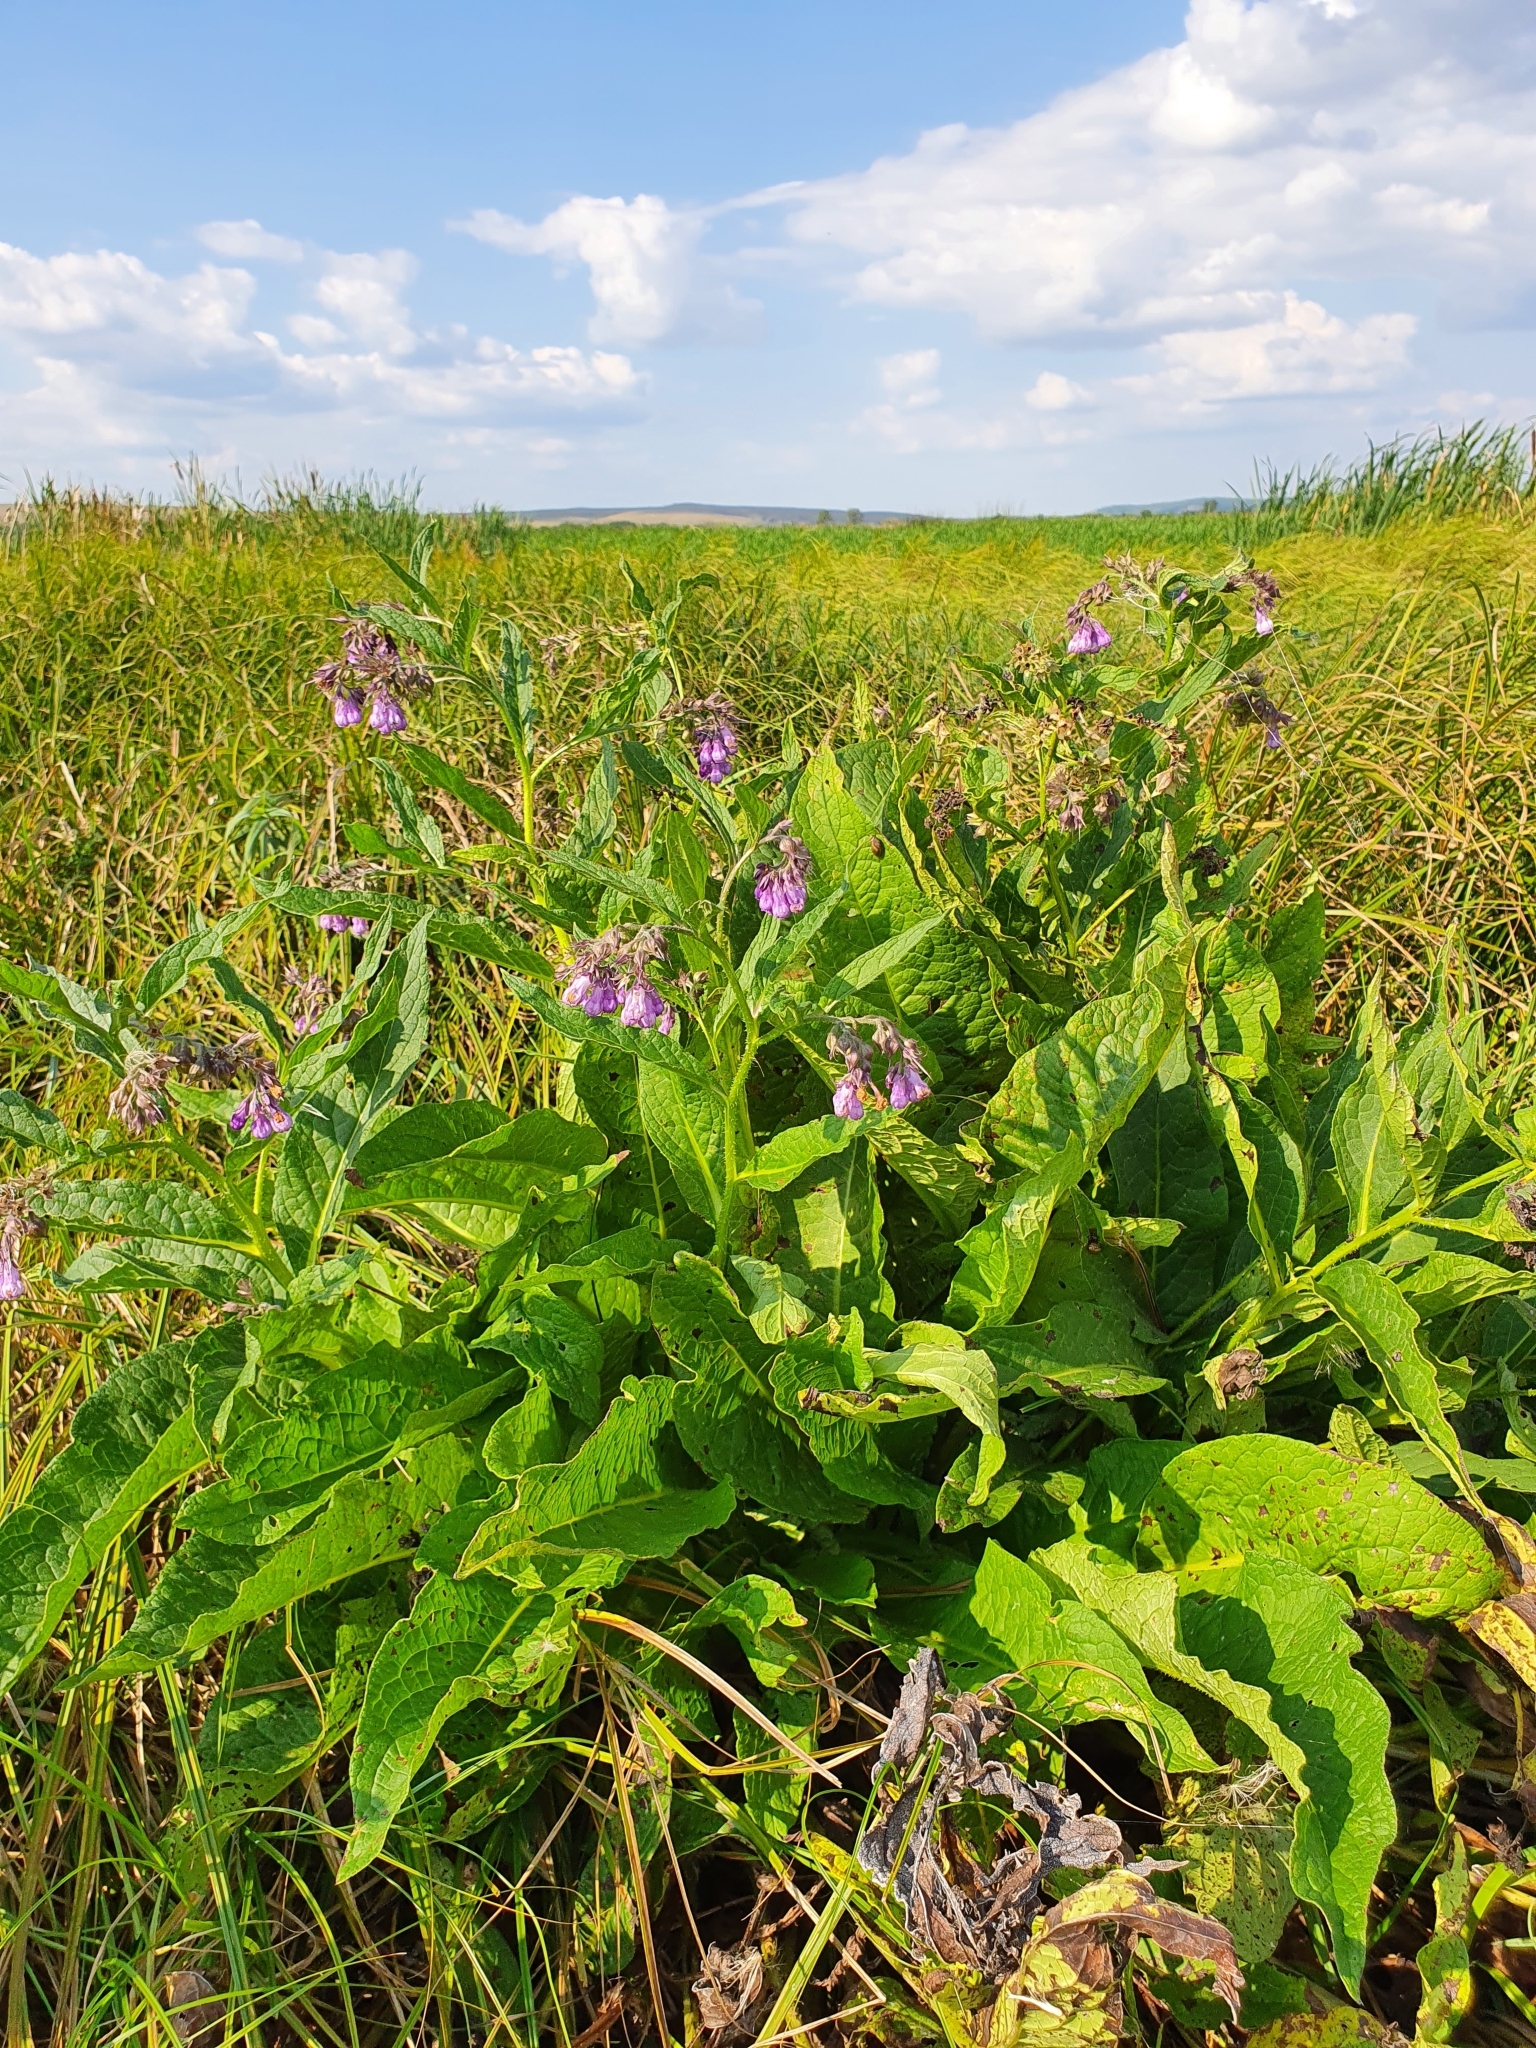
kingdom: Plantae
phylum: Tracheophyta
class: Magnoliopsida
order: Boraginales
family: Boraginaceae
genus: Symphytum
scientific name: Symphytum officinale
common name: Common comfrey
